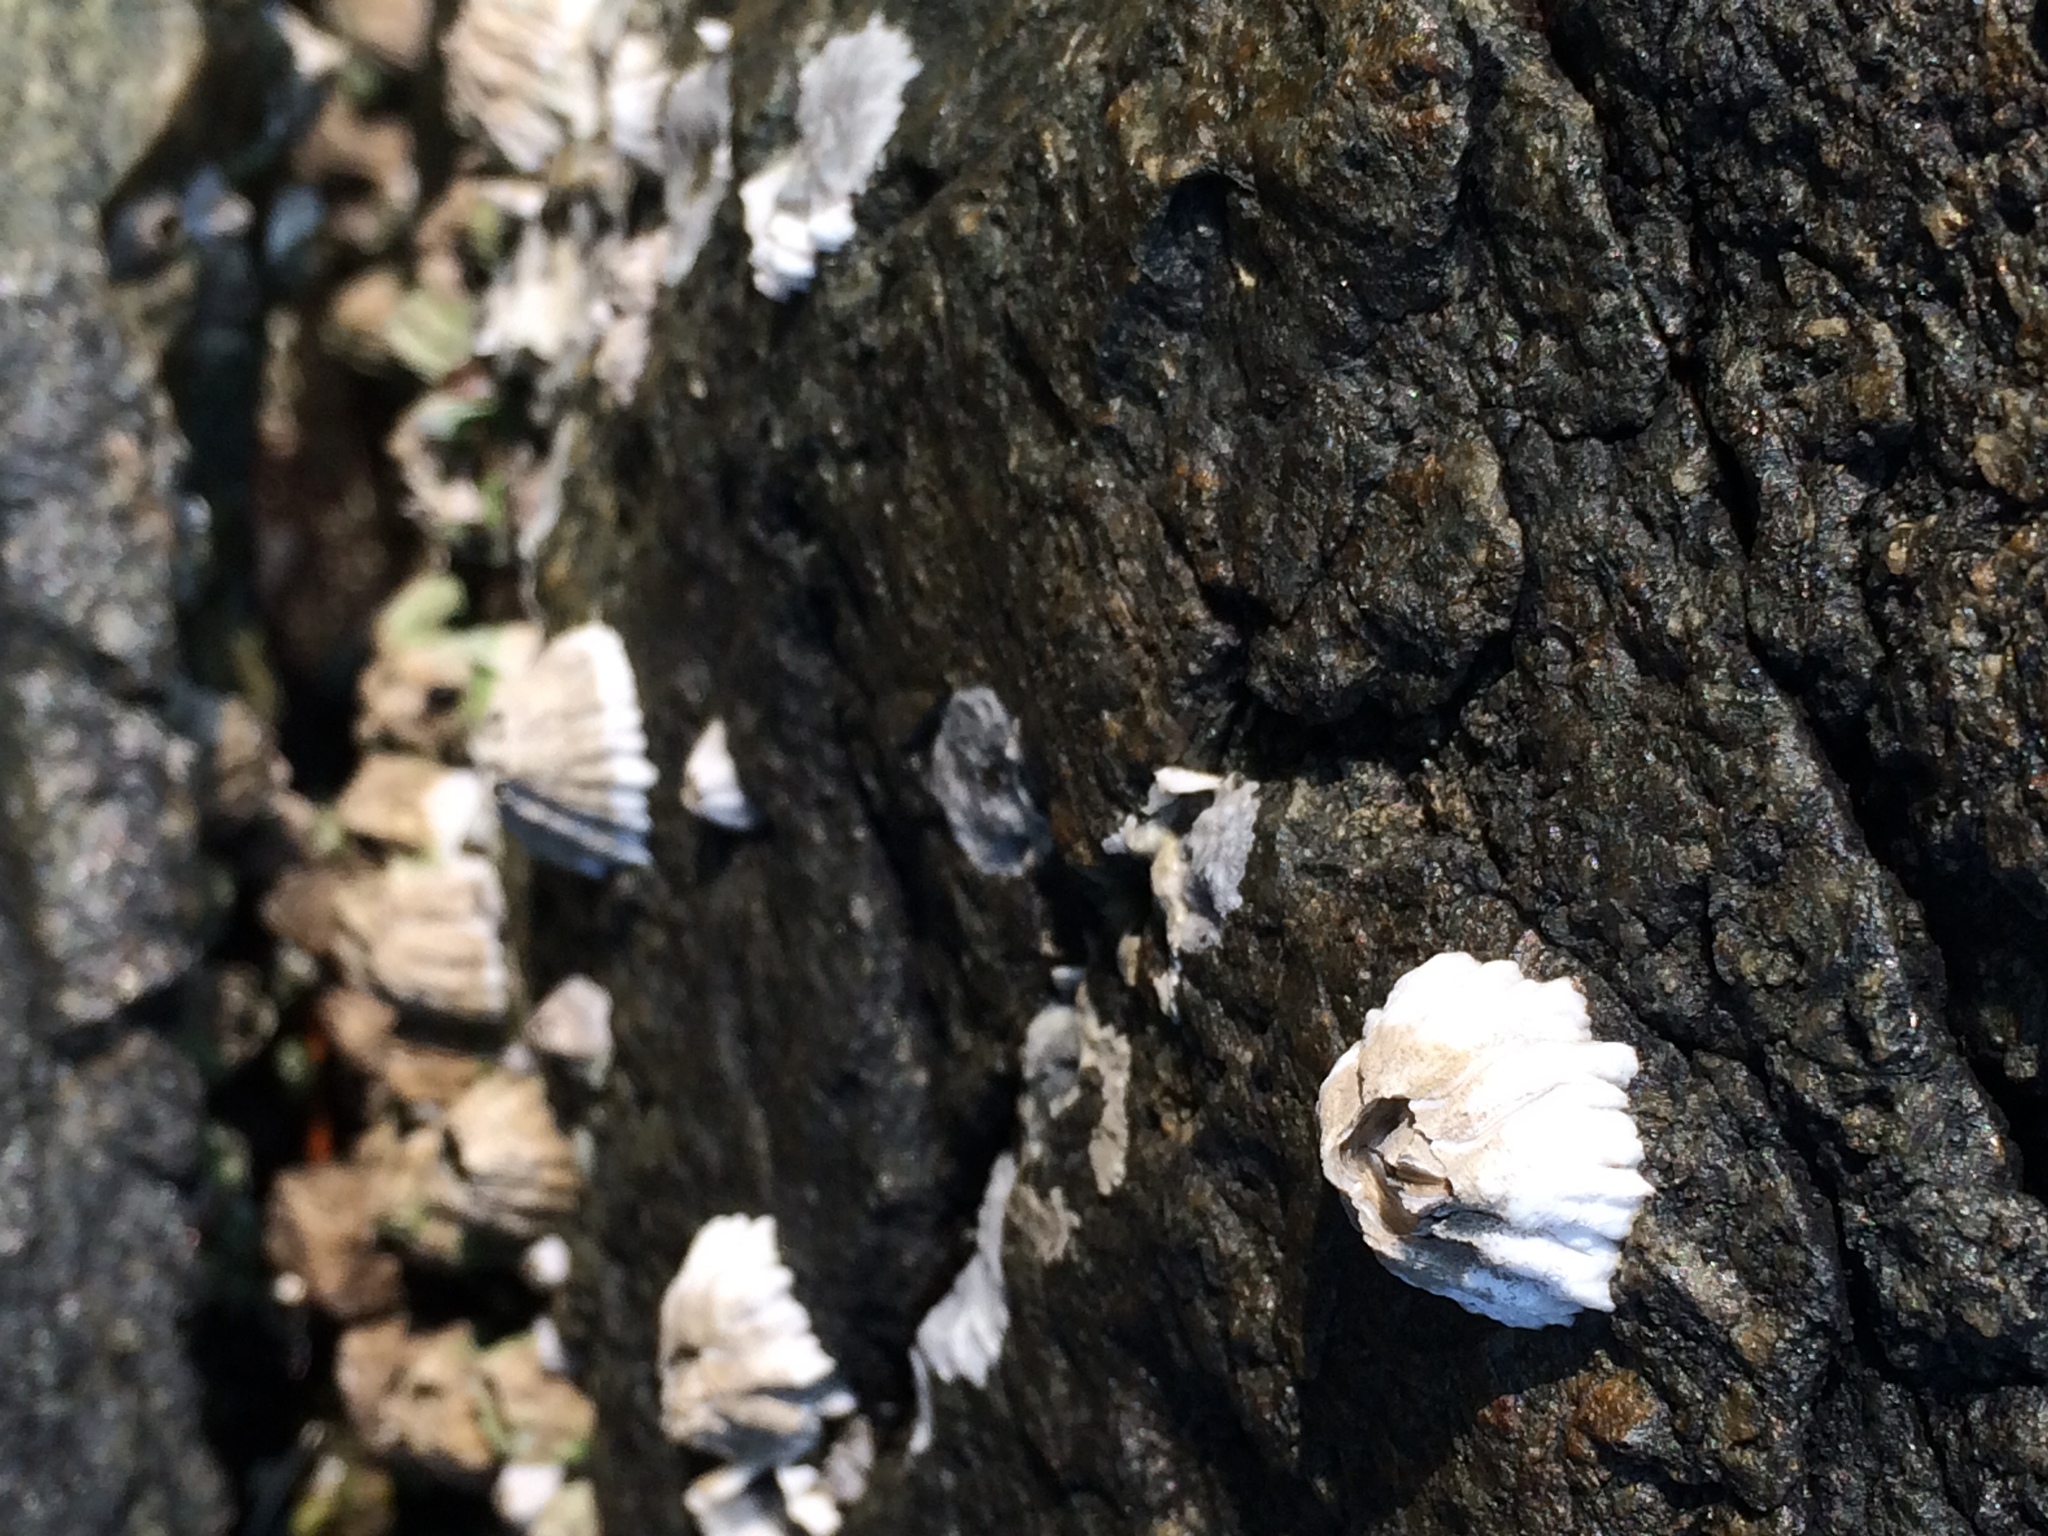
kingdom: Animalia
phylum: Arthropoda
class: Maxillopoda
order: Sessilia
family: Balanidae
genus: Balanus
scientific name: Balanus glandula
